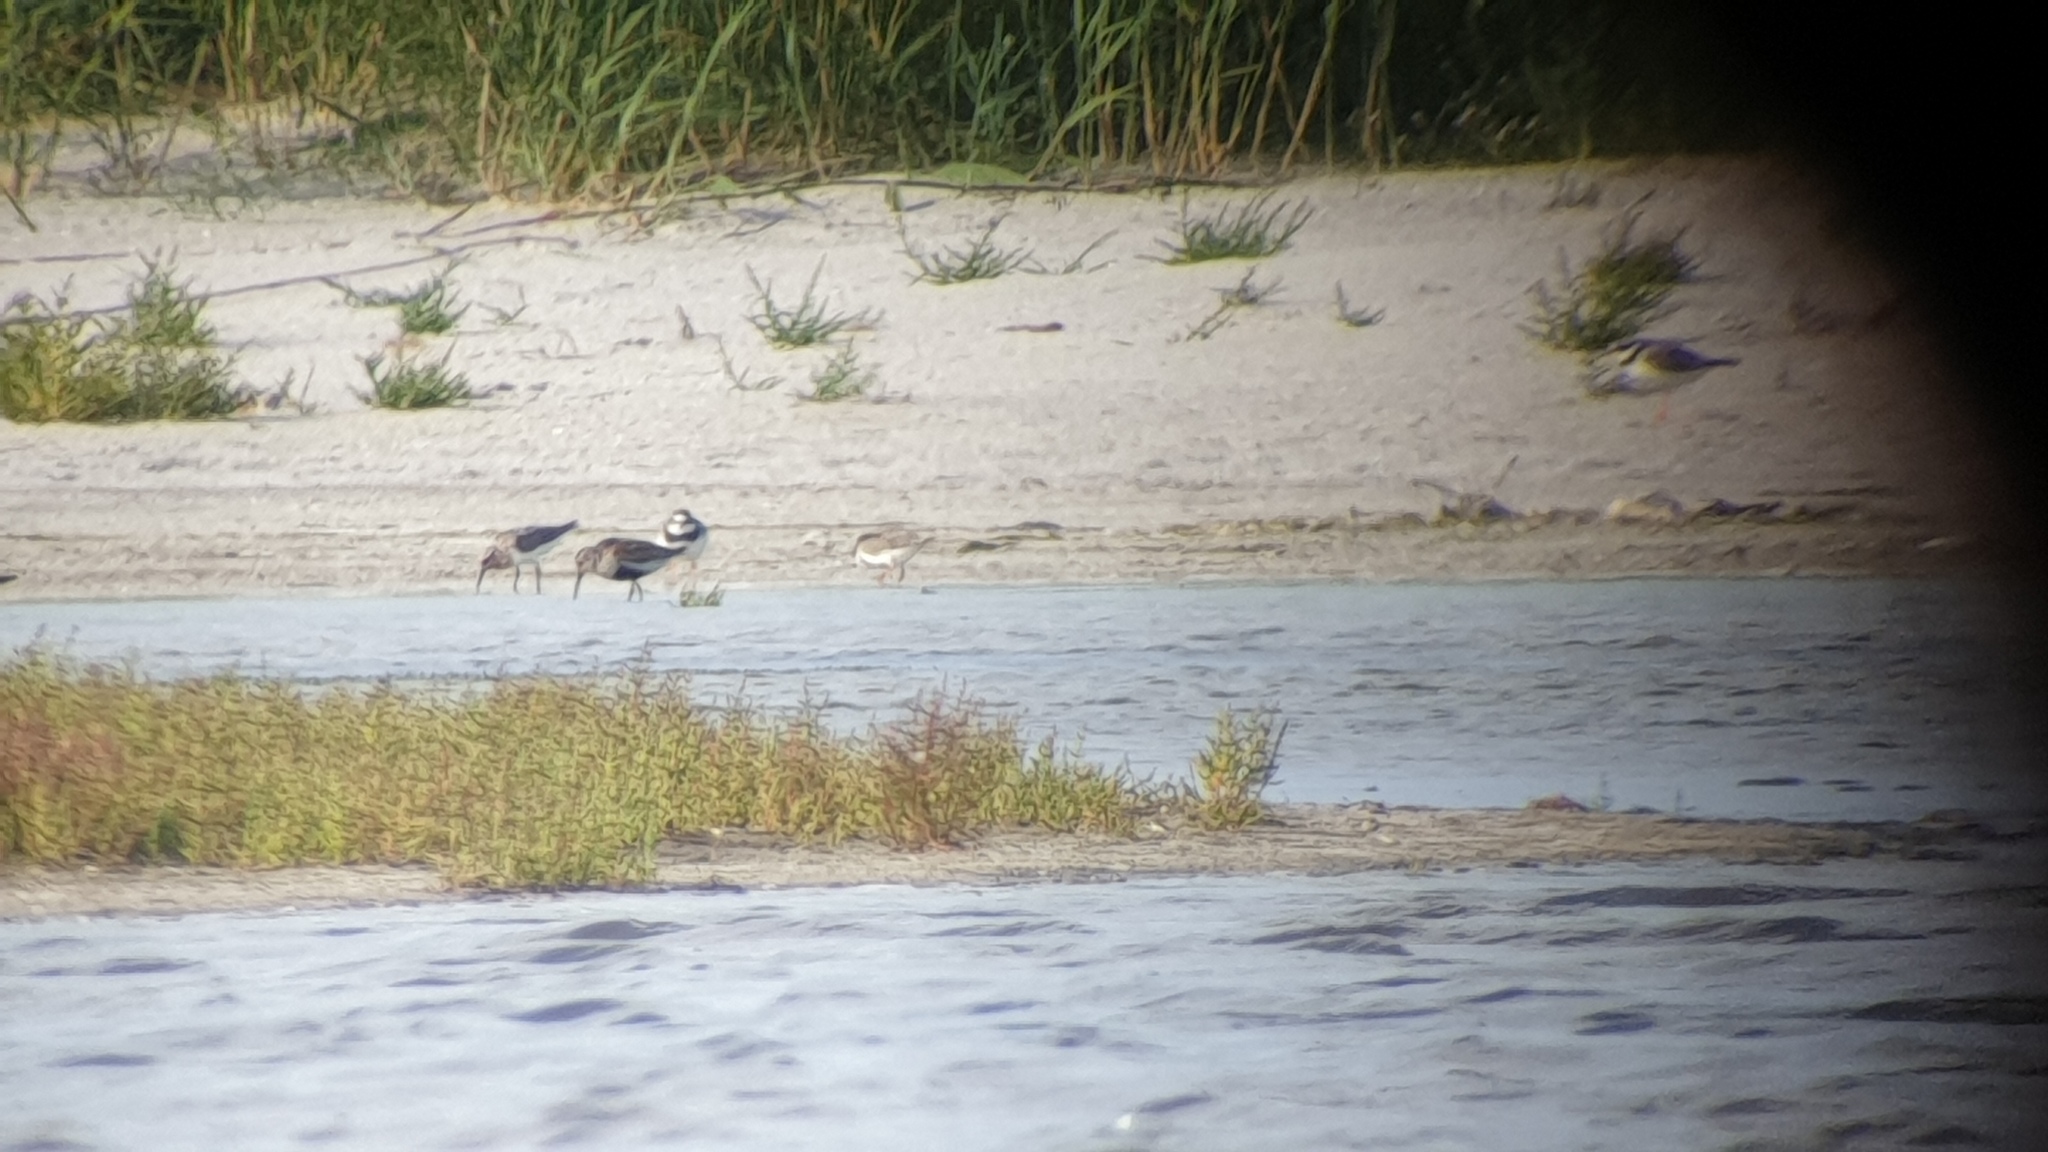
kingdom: Animalia
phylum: Chordata
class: Aves
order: Charadriiformes
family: Charadriidae
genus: Charadrius
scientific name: Charadrius hiaticula
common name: Common ringed plover
